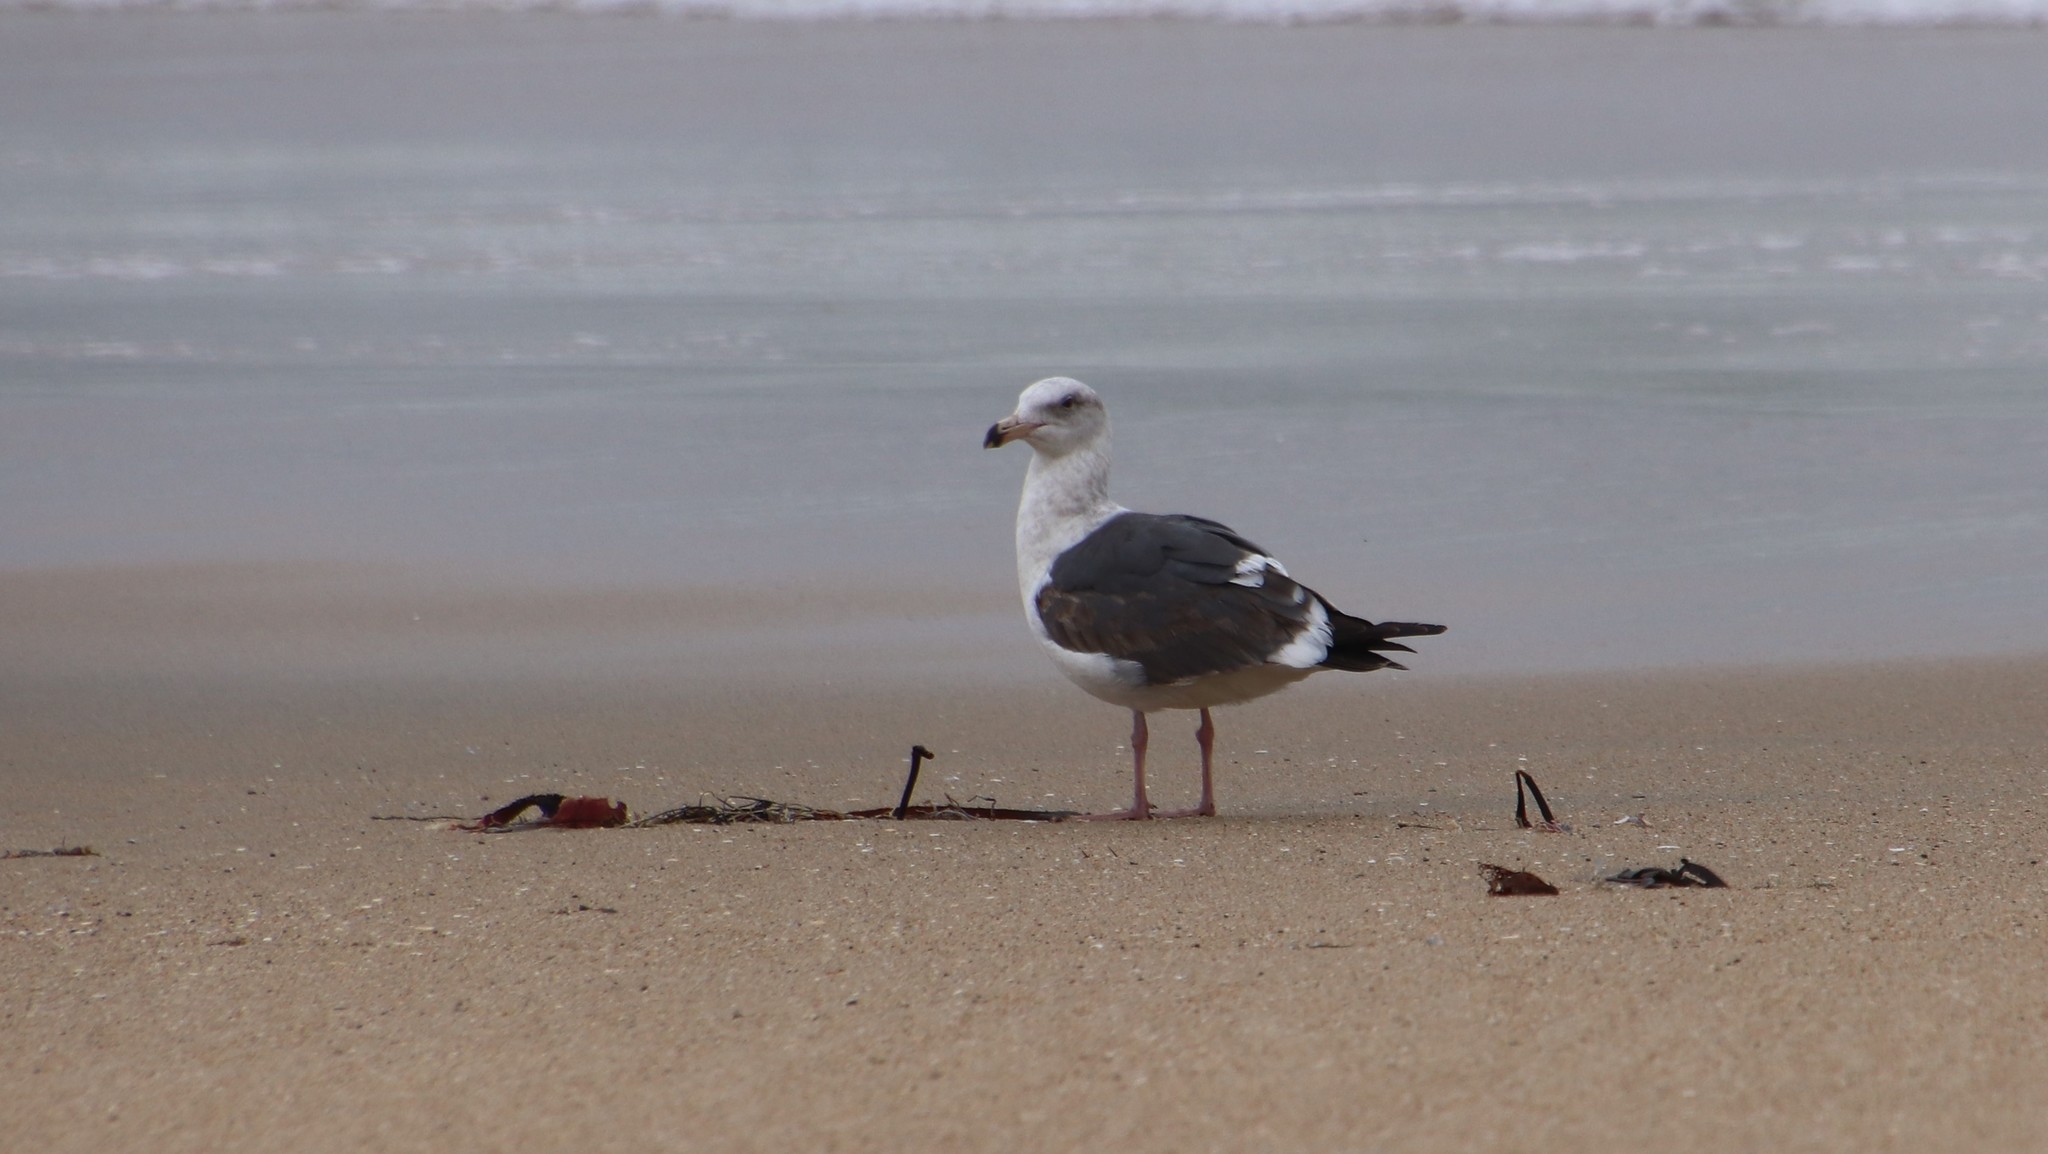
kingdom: Animalia
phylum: Chordata
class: Aves
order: Charadriiformes
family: Laridae
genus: Larus
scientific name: Larus occidentalis
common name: Western gull
